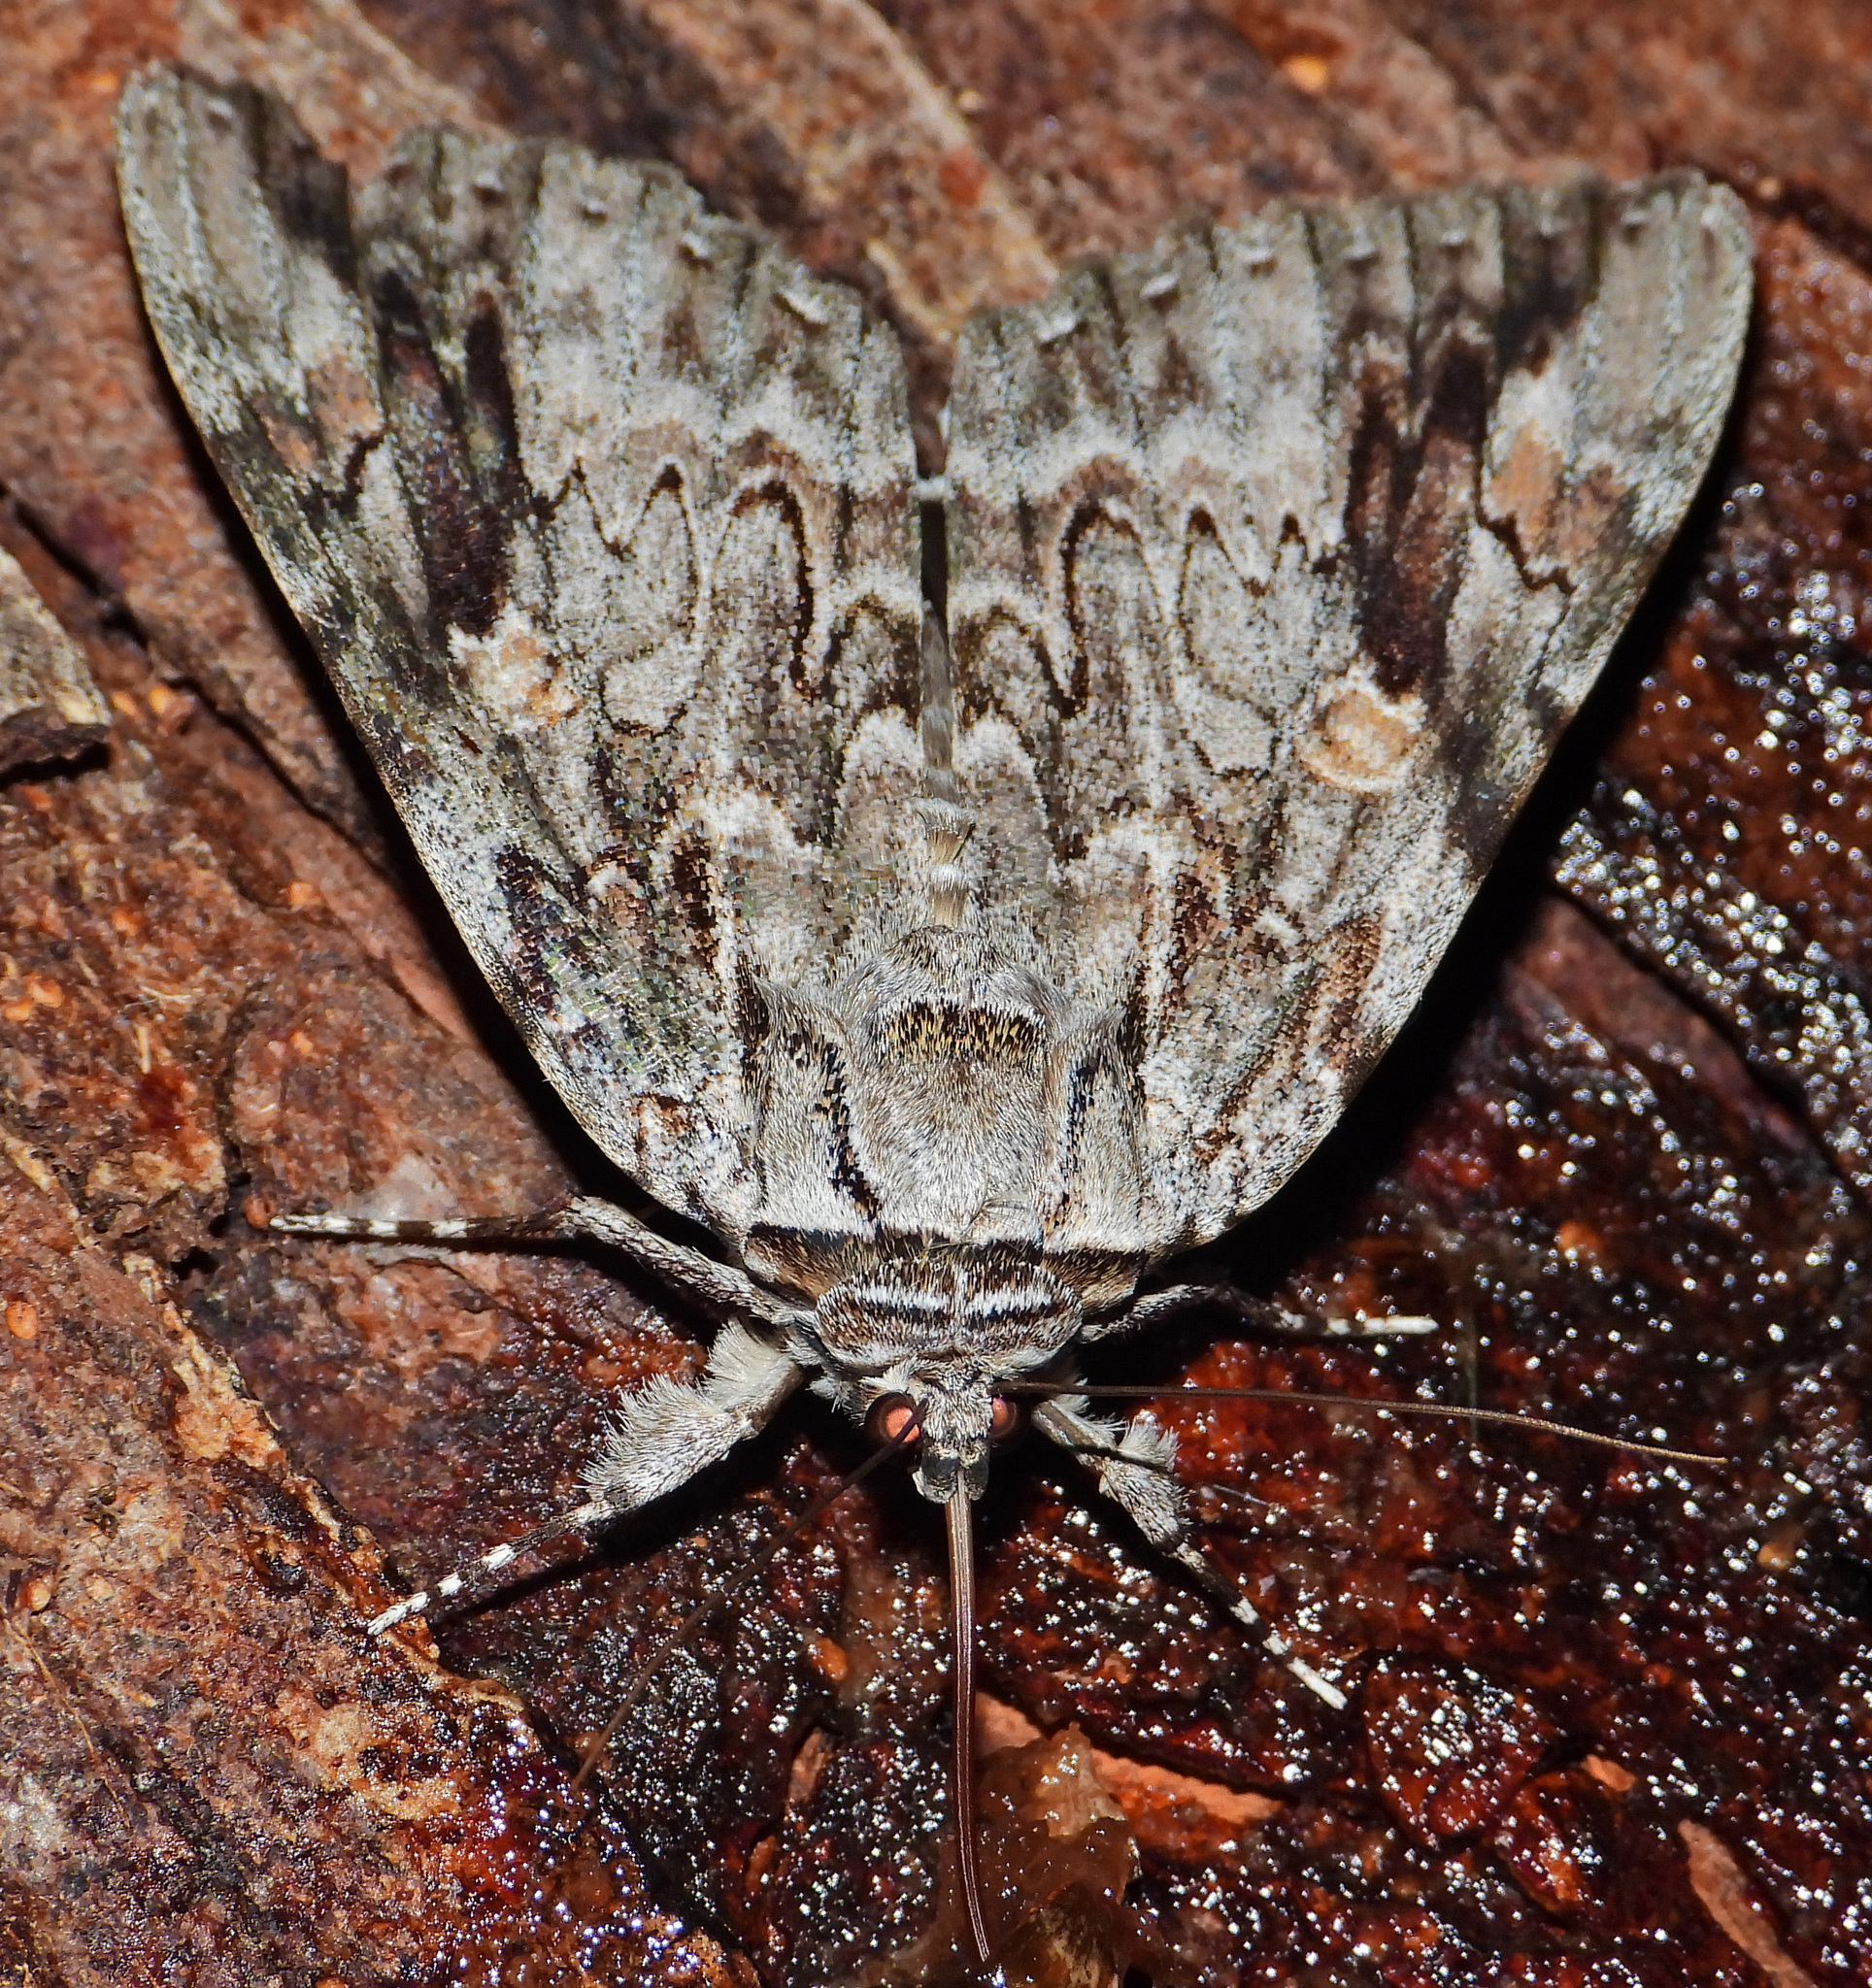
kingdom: Animalia
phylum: Arthropoda
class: Insecta
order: Lepidoptera
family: Erebidae
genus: Catocala
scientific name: Catocala maestosa
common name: Sad underwing
